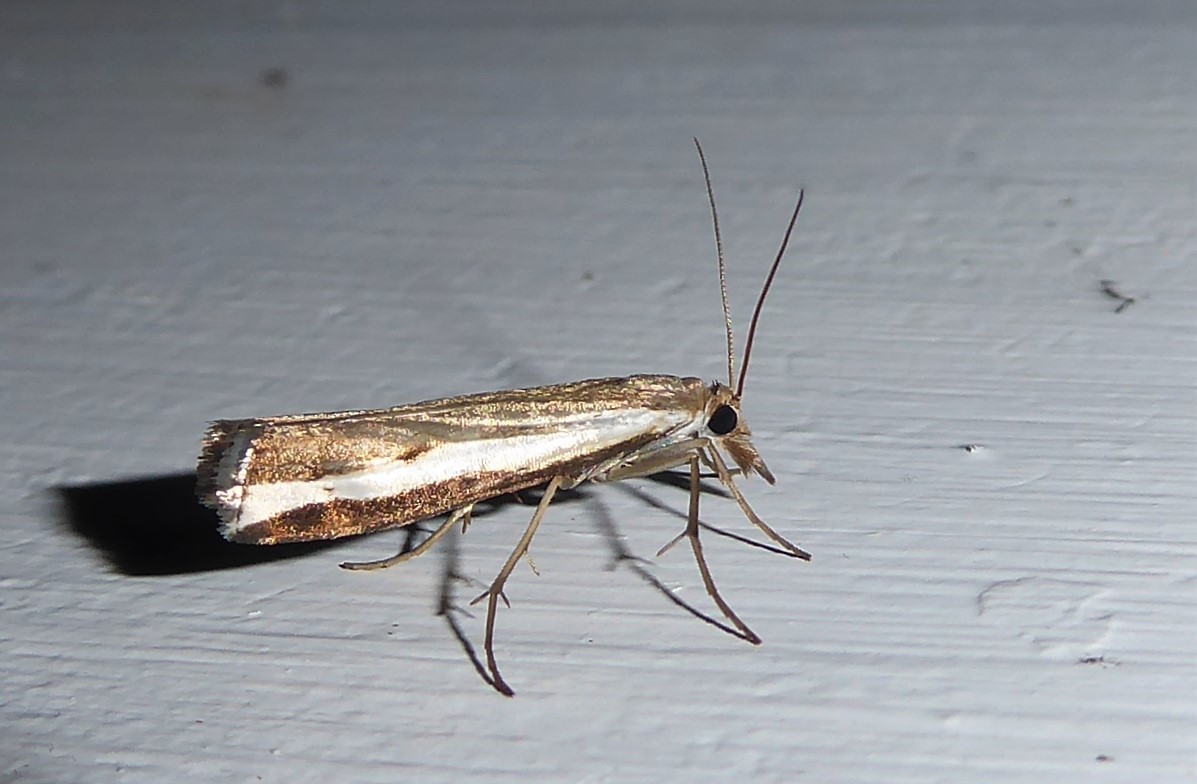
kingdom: Animalia
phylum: Arthropoda
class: Insecta
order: Lepidoptera
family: Crambidae
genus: Orocrambus
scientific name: Orocrambus flexuosellus
